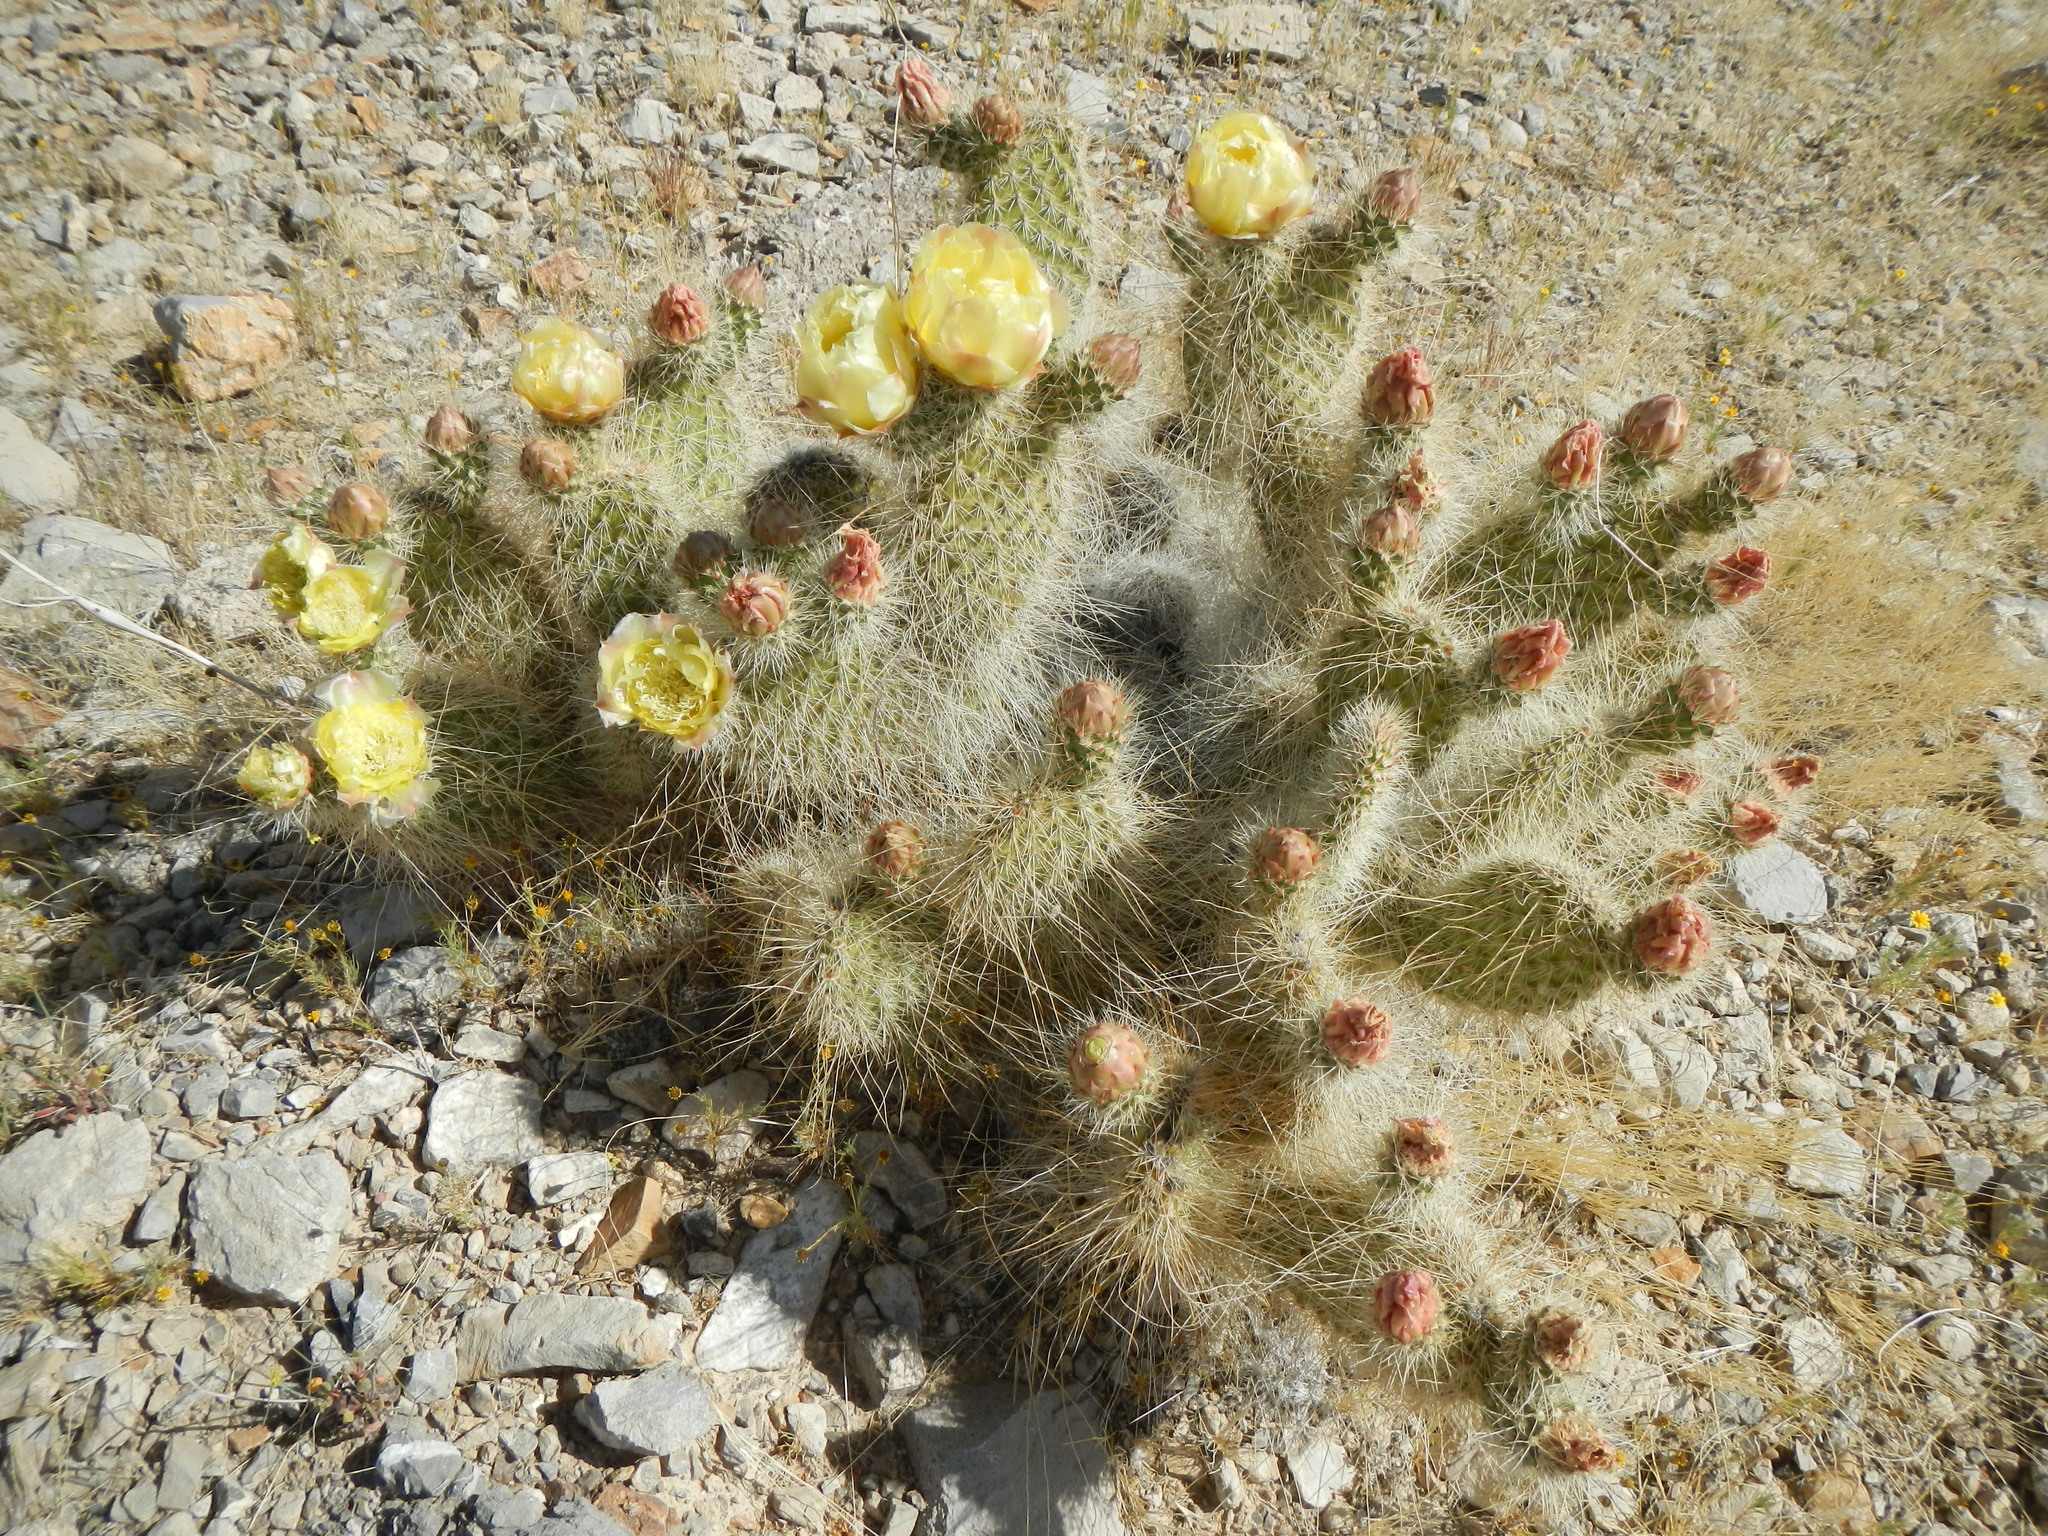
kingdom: Plantae
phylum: Tracheophyta
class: Magnoliopsida
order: Caryophyllales
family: Cactaceae
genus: Opuntia
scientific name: Opuntia polyacantha
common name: Plains prickly-pear
